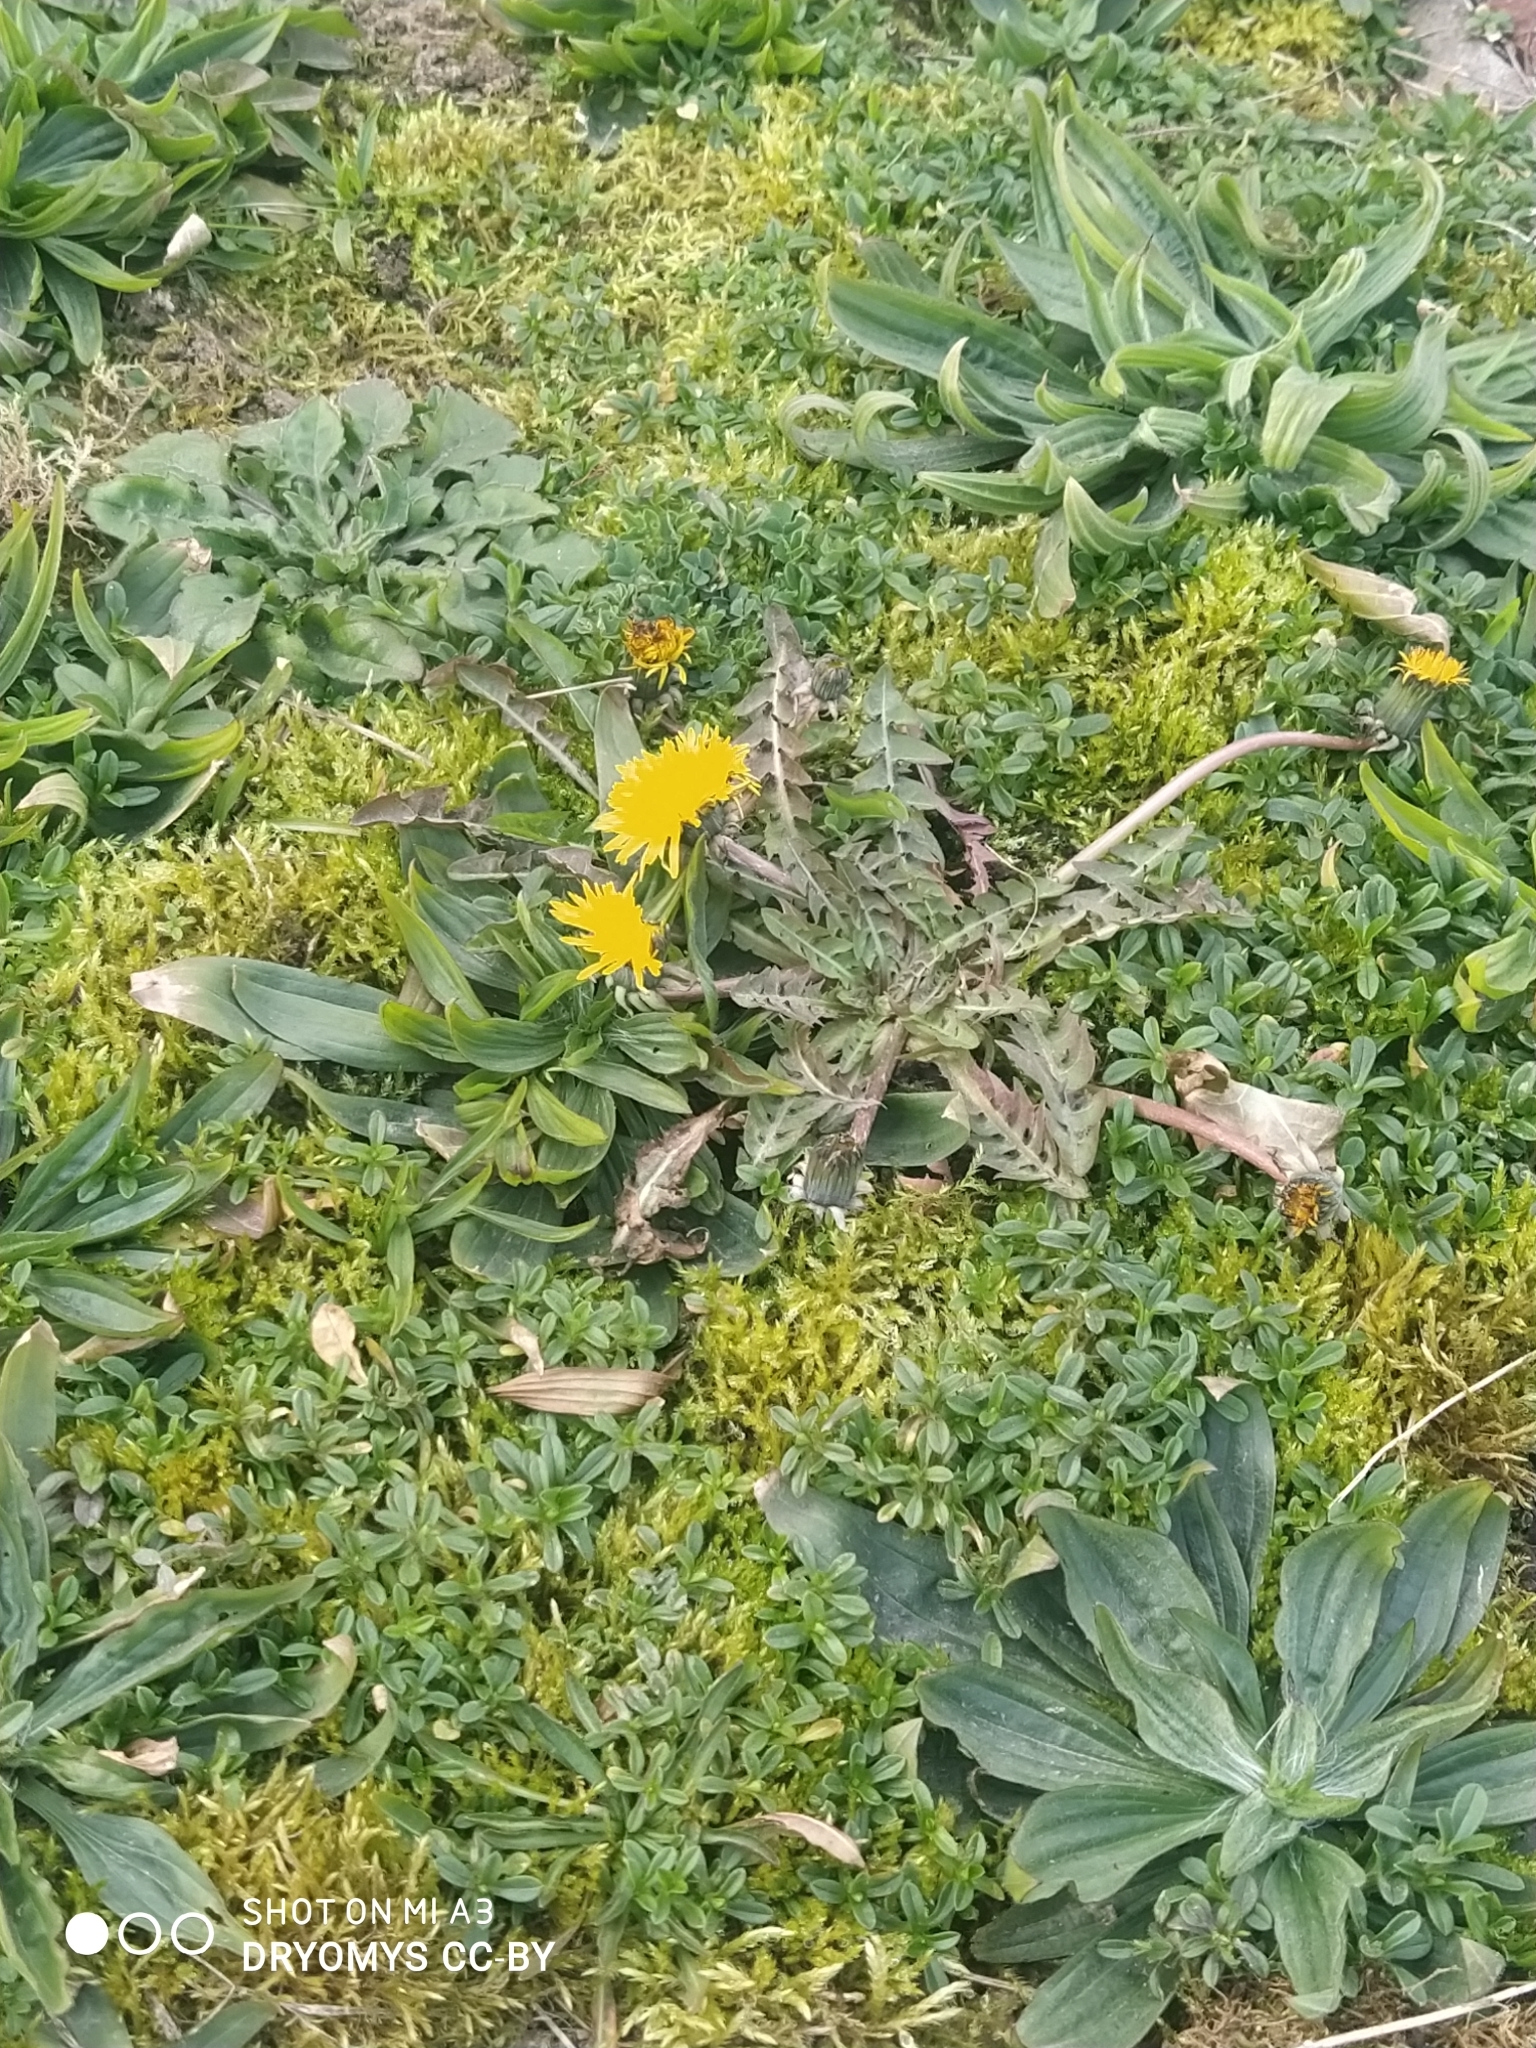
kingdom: Plantae
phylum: Tracheophyta
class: Magnoliopsida
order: Asterales
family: Asteraceae
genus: Taraxacum
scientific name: Taraxacum officinale
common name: Common dandelion
